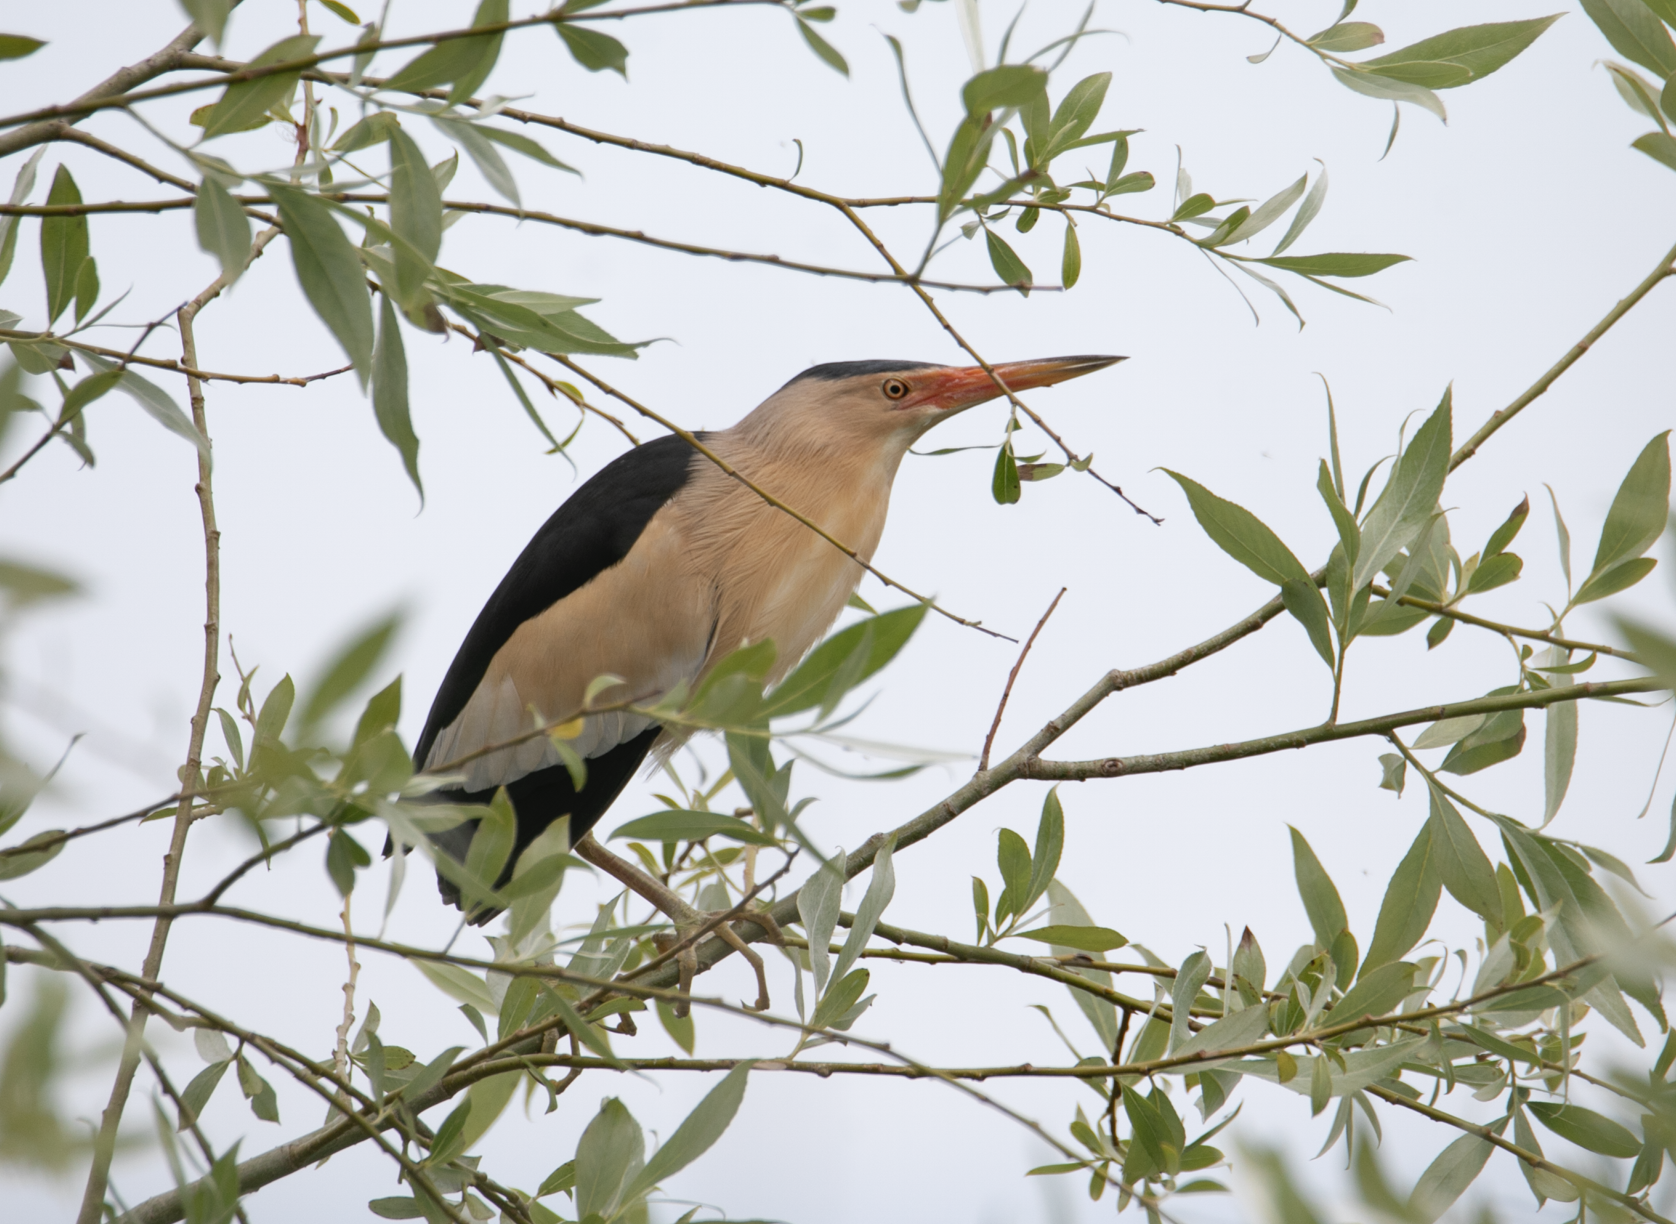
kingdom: Animalia
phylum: Chordata
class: Aves
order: Pelecaniformes
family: Ardeidae
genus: Ixobrychus
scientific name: Ixobrychus minutus
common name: Little bittern
